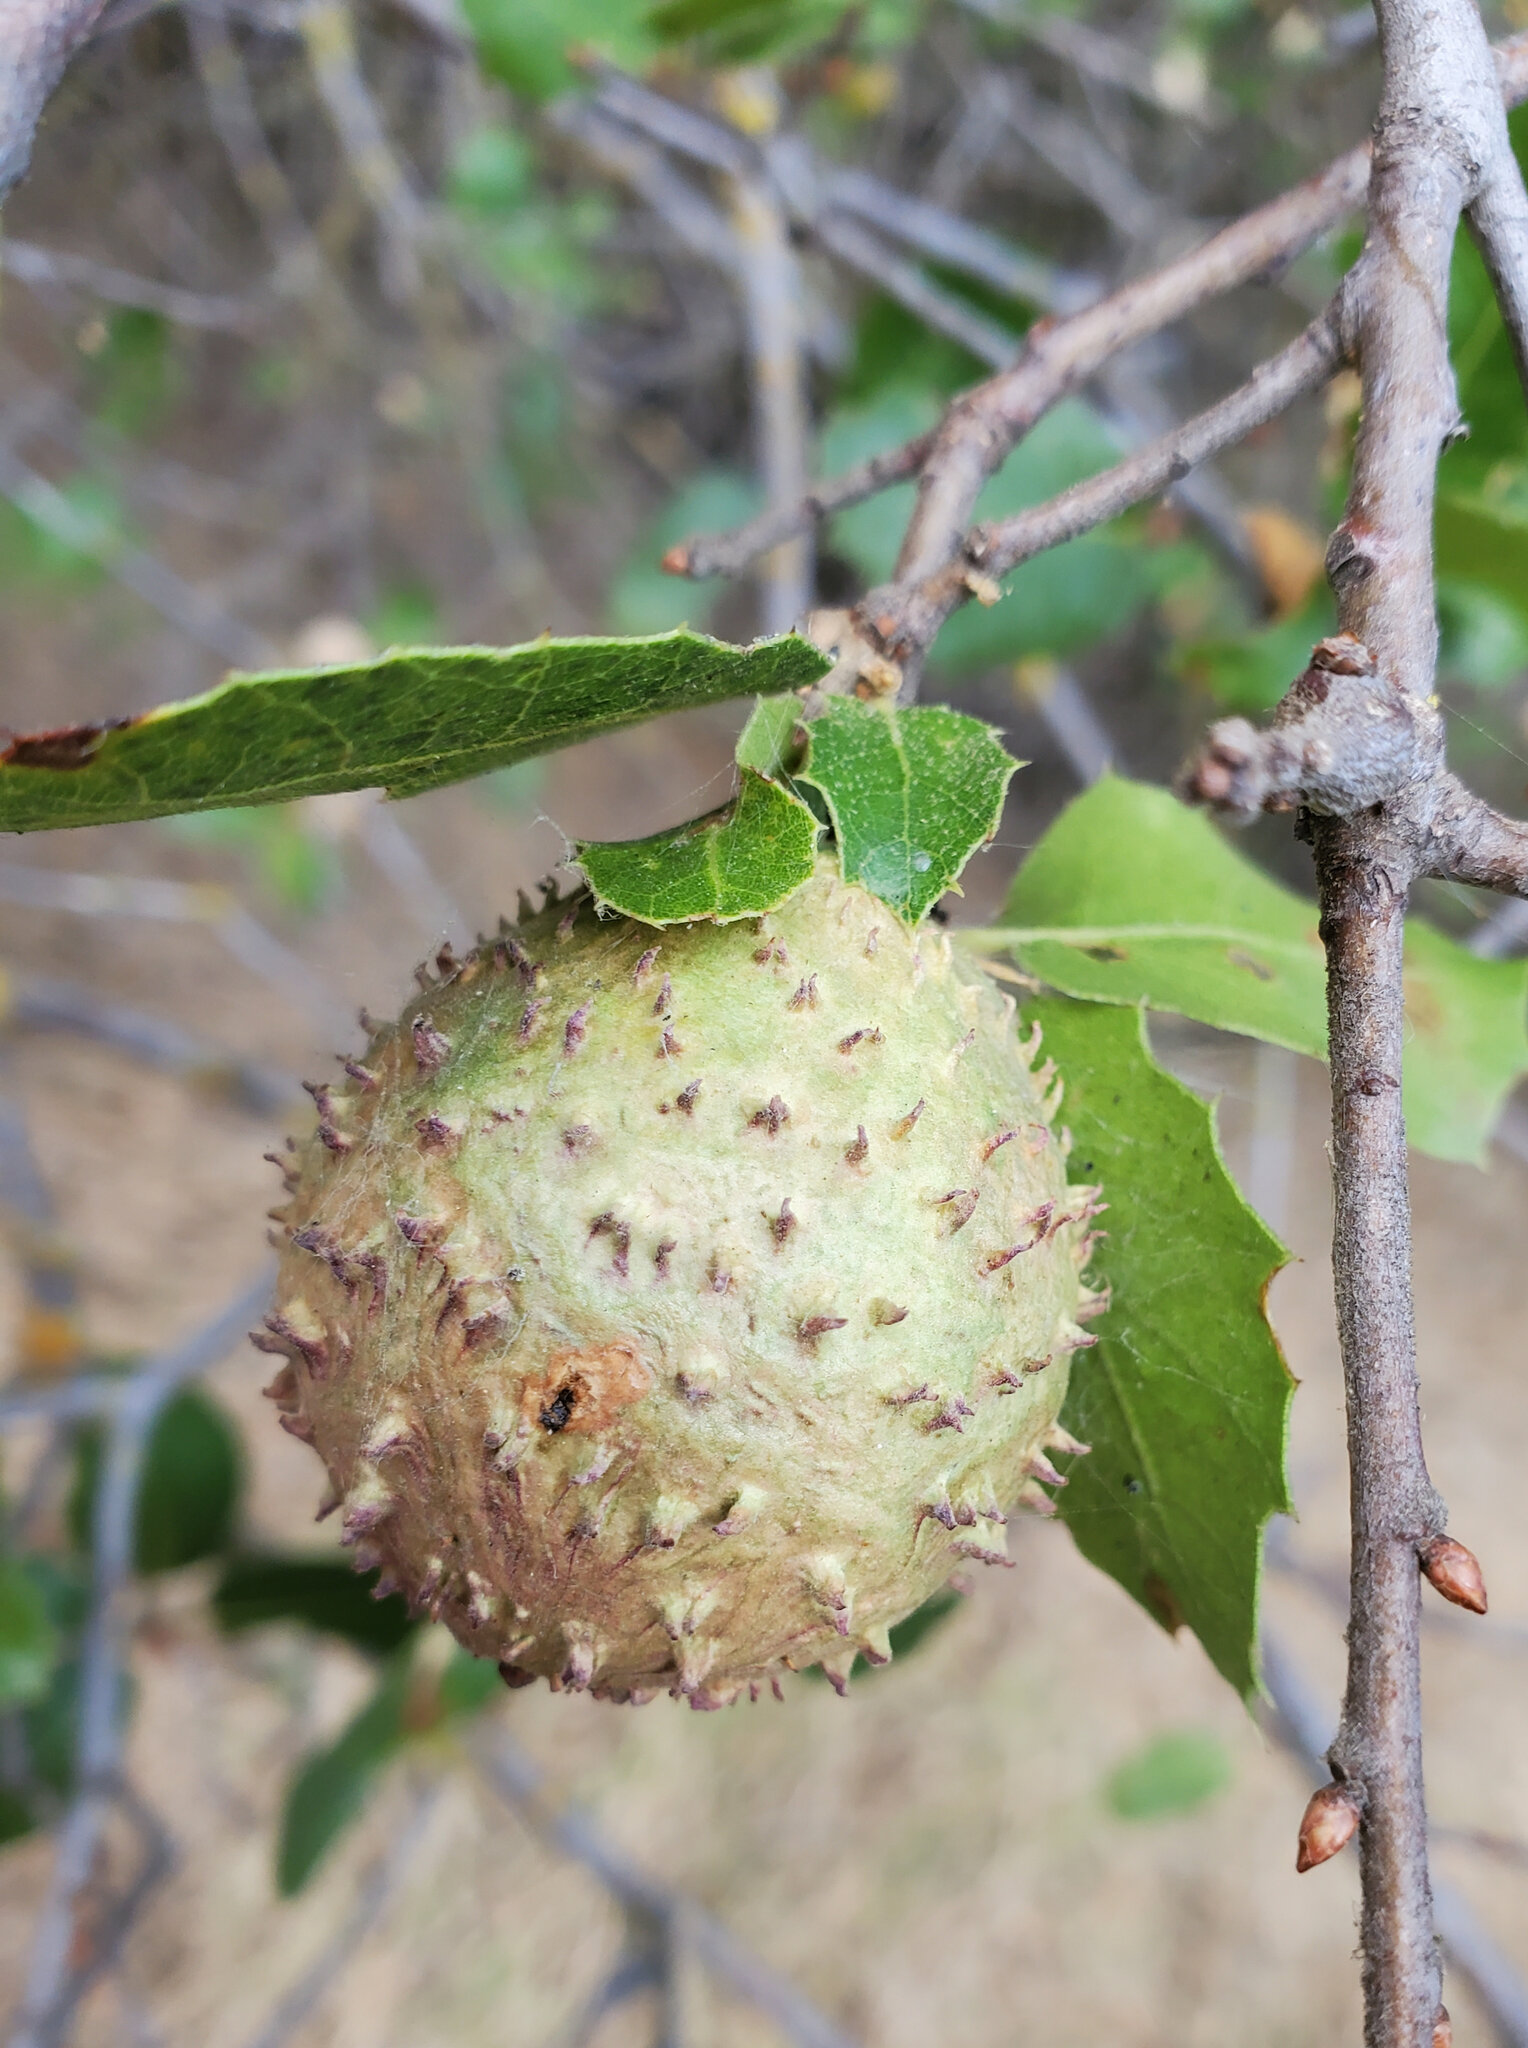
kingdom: Animalia
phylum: Arthropoda
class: Insecta
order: Hymenoptera
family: Cynipidae
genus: Amphibolips
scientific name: Amphibolips quercuspomiformis
